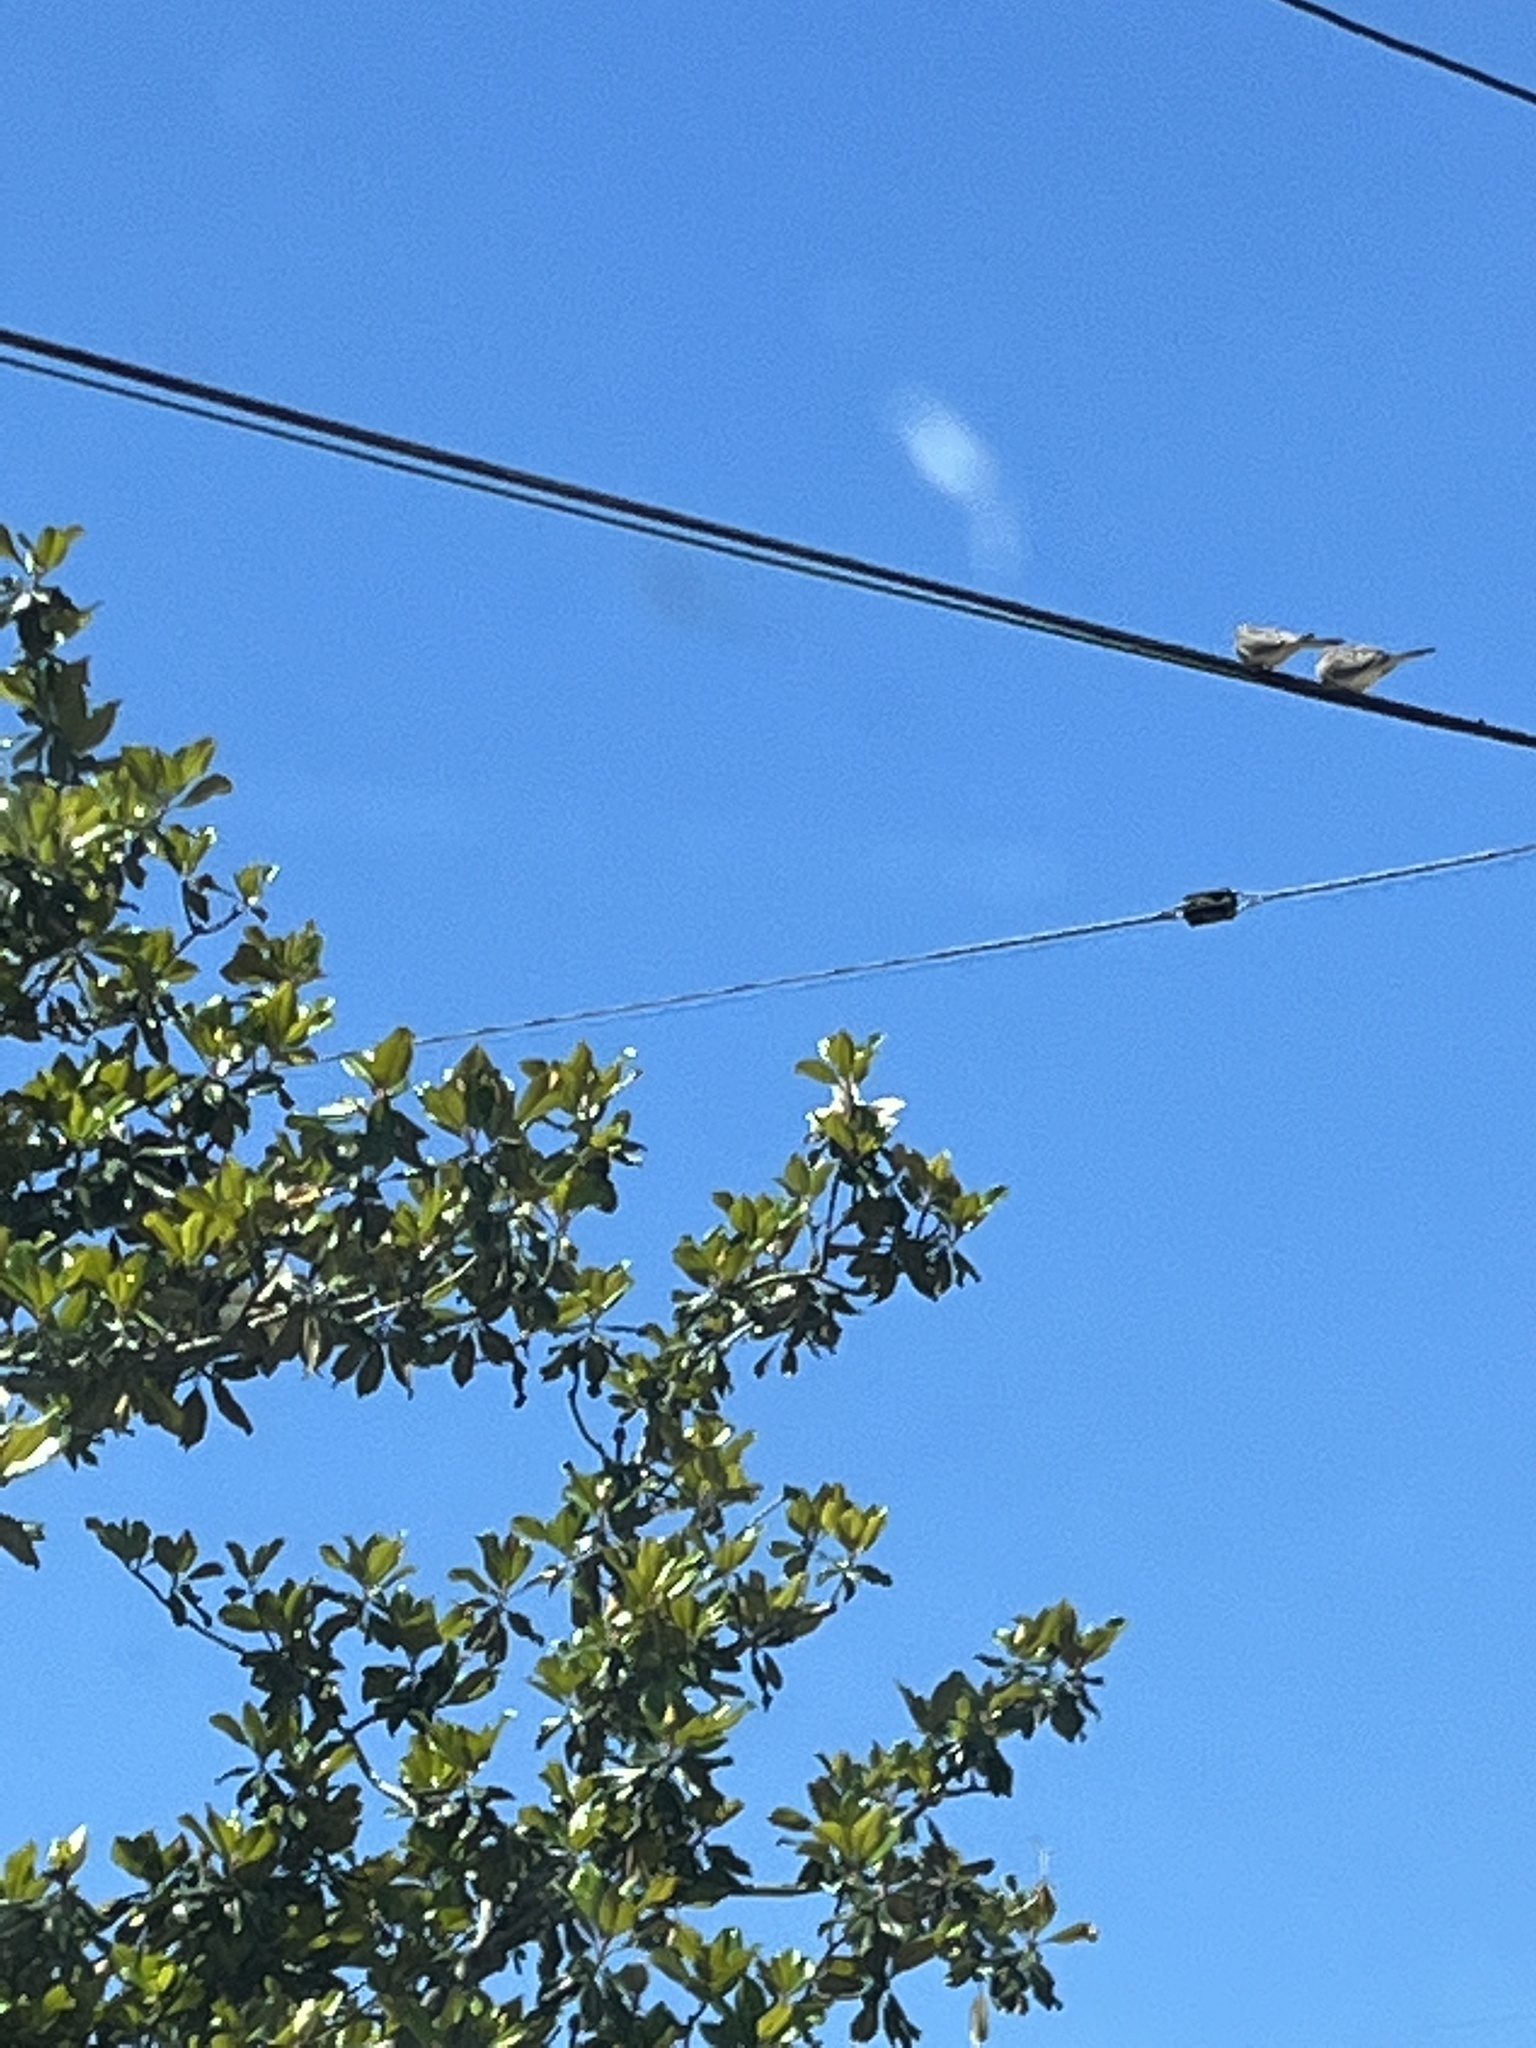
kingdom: Animalia
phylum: Chordata
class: Aves
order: Columbiformes
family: Columbidae
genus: Zenaida
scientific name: Zenaida macroura
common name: Mourning dove
